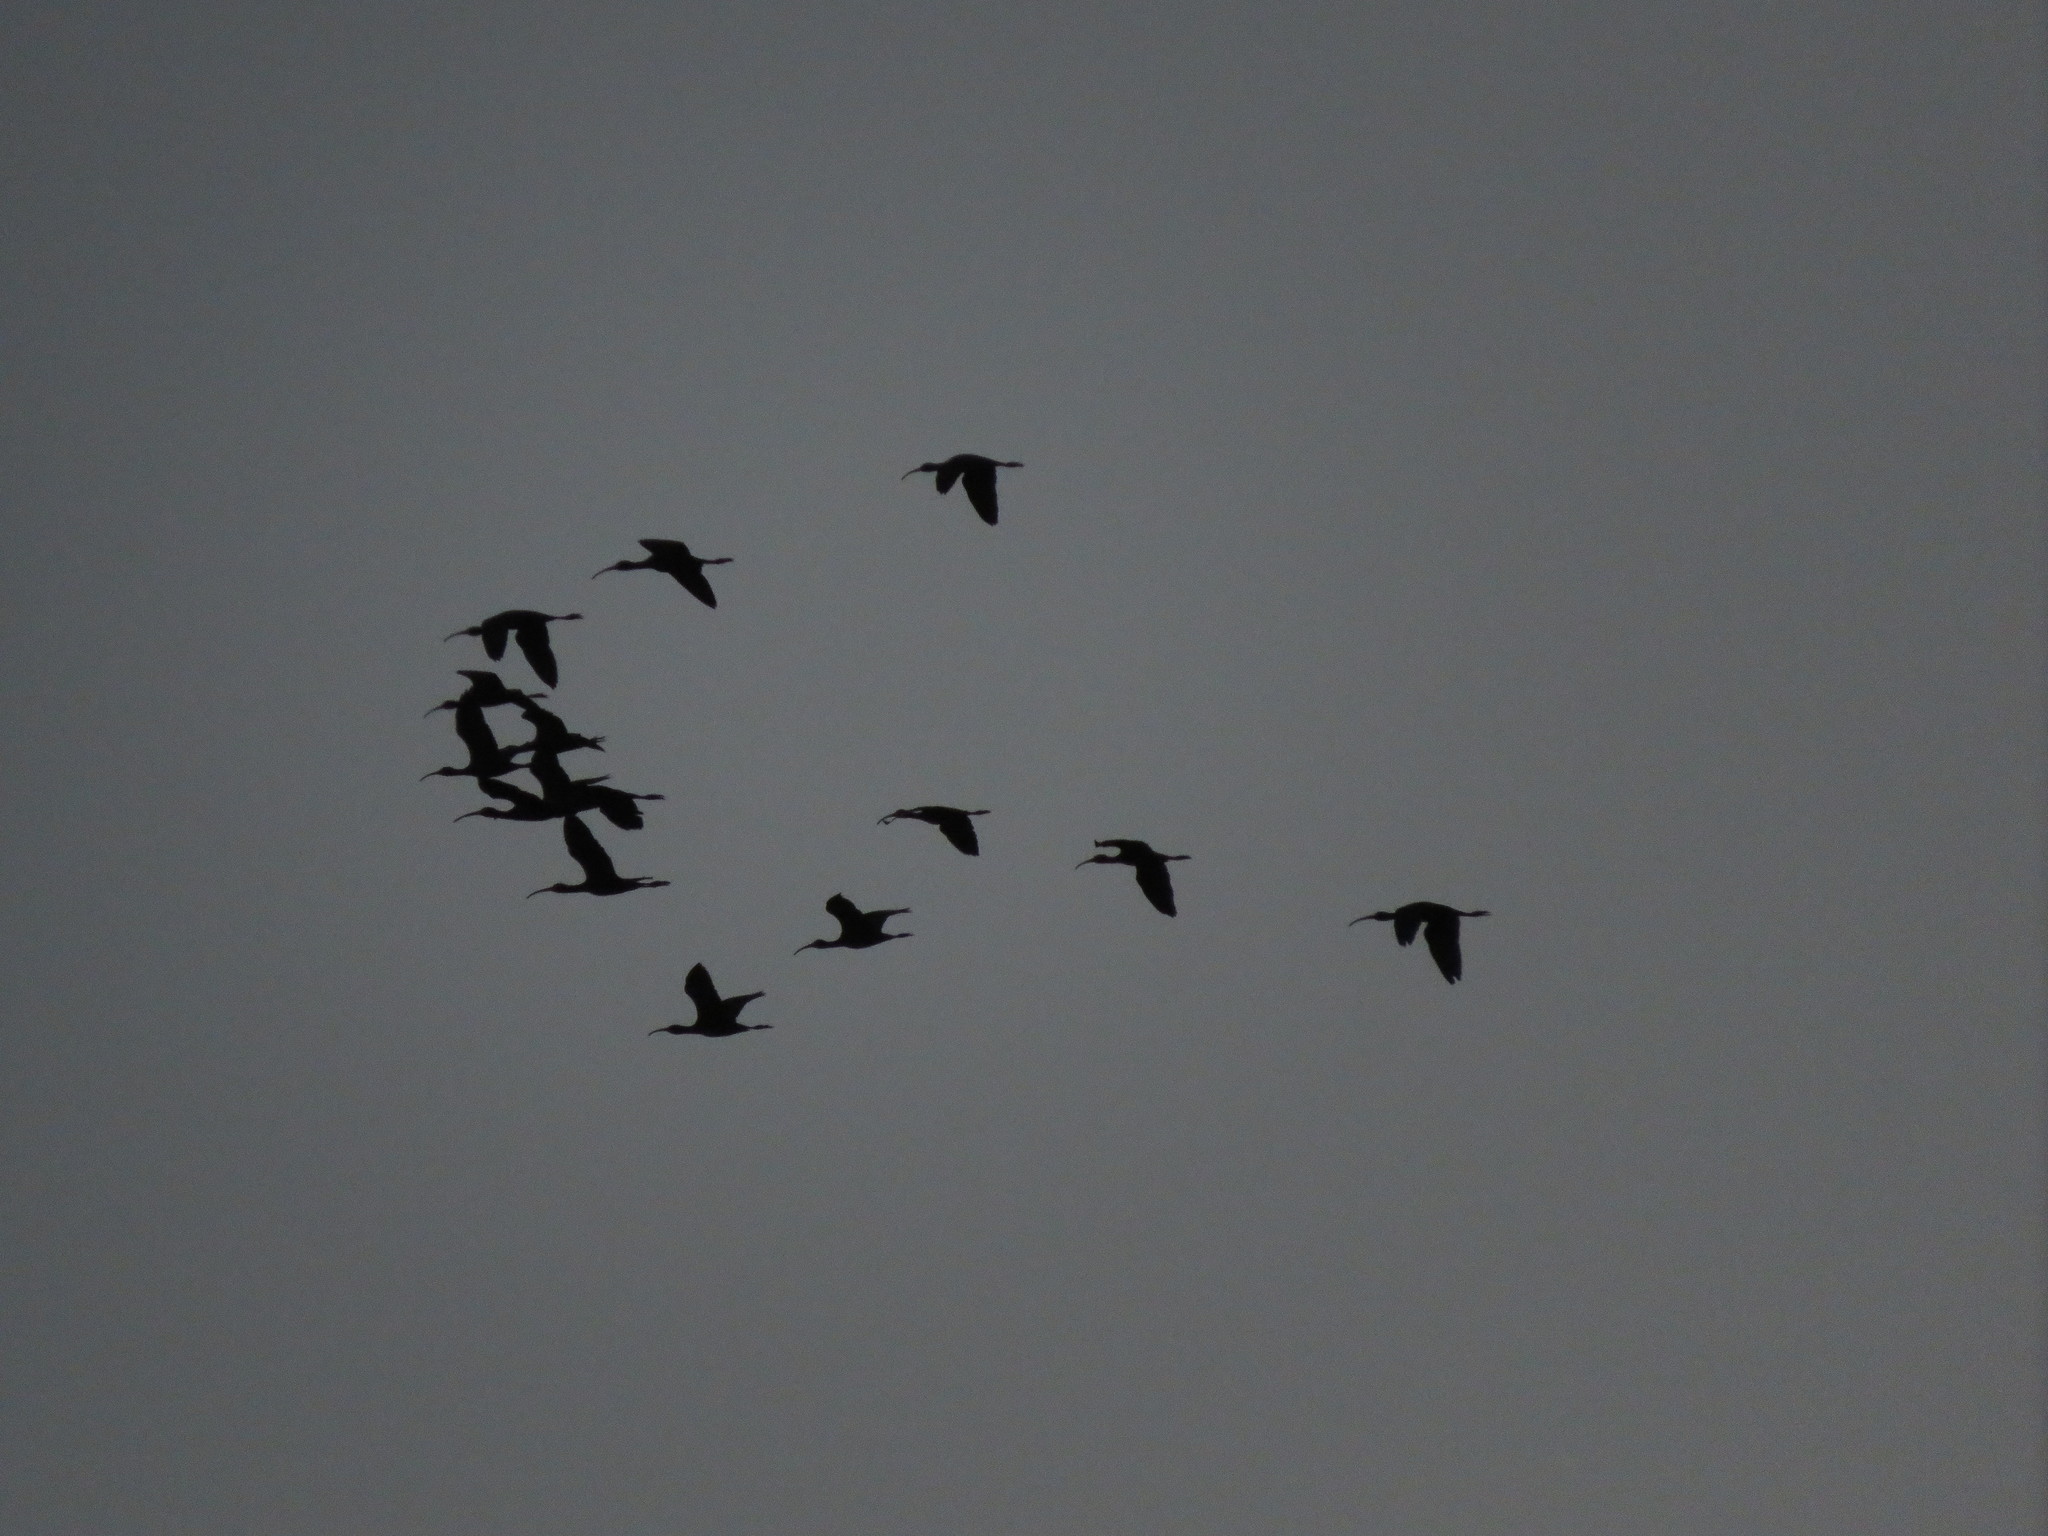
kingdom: Animalia
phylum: Chordata
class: Aves
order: Pelecaniformes
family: Threskiornithidae
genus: Plegadis
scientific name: Plegadis chihi
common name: White-faced ibis
